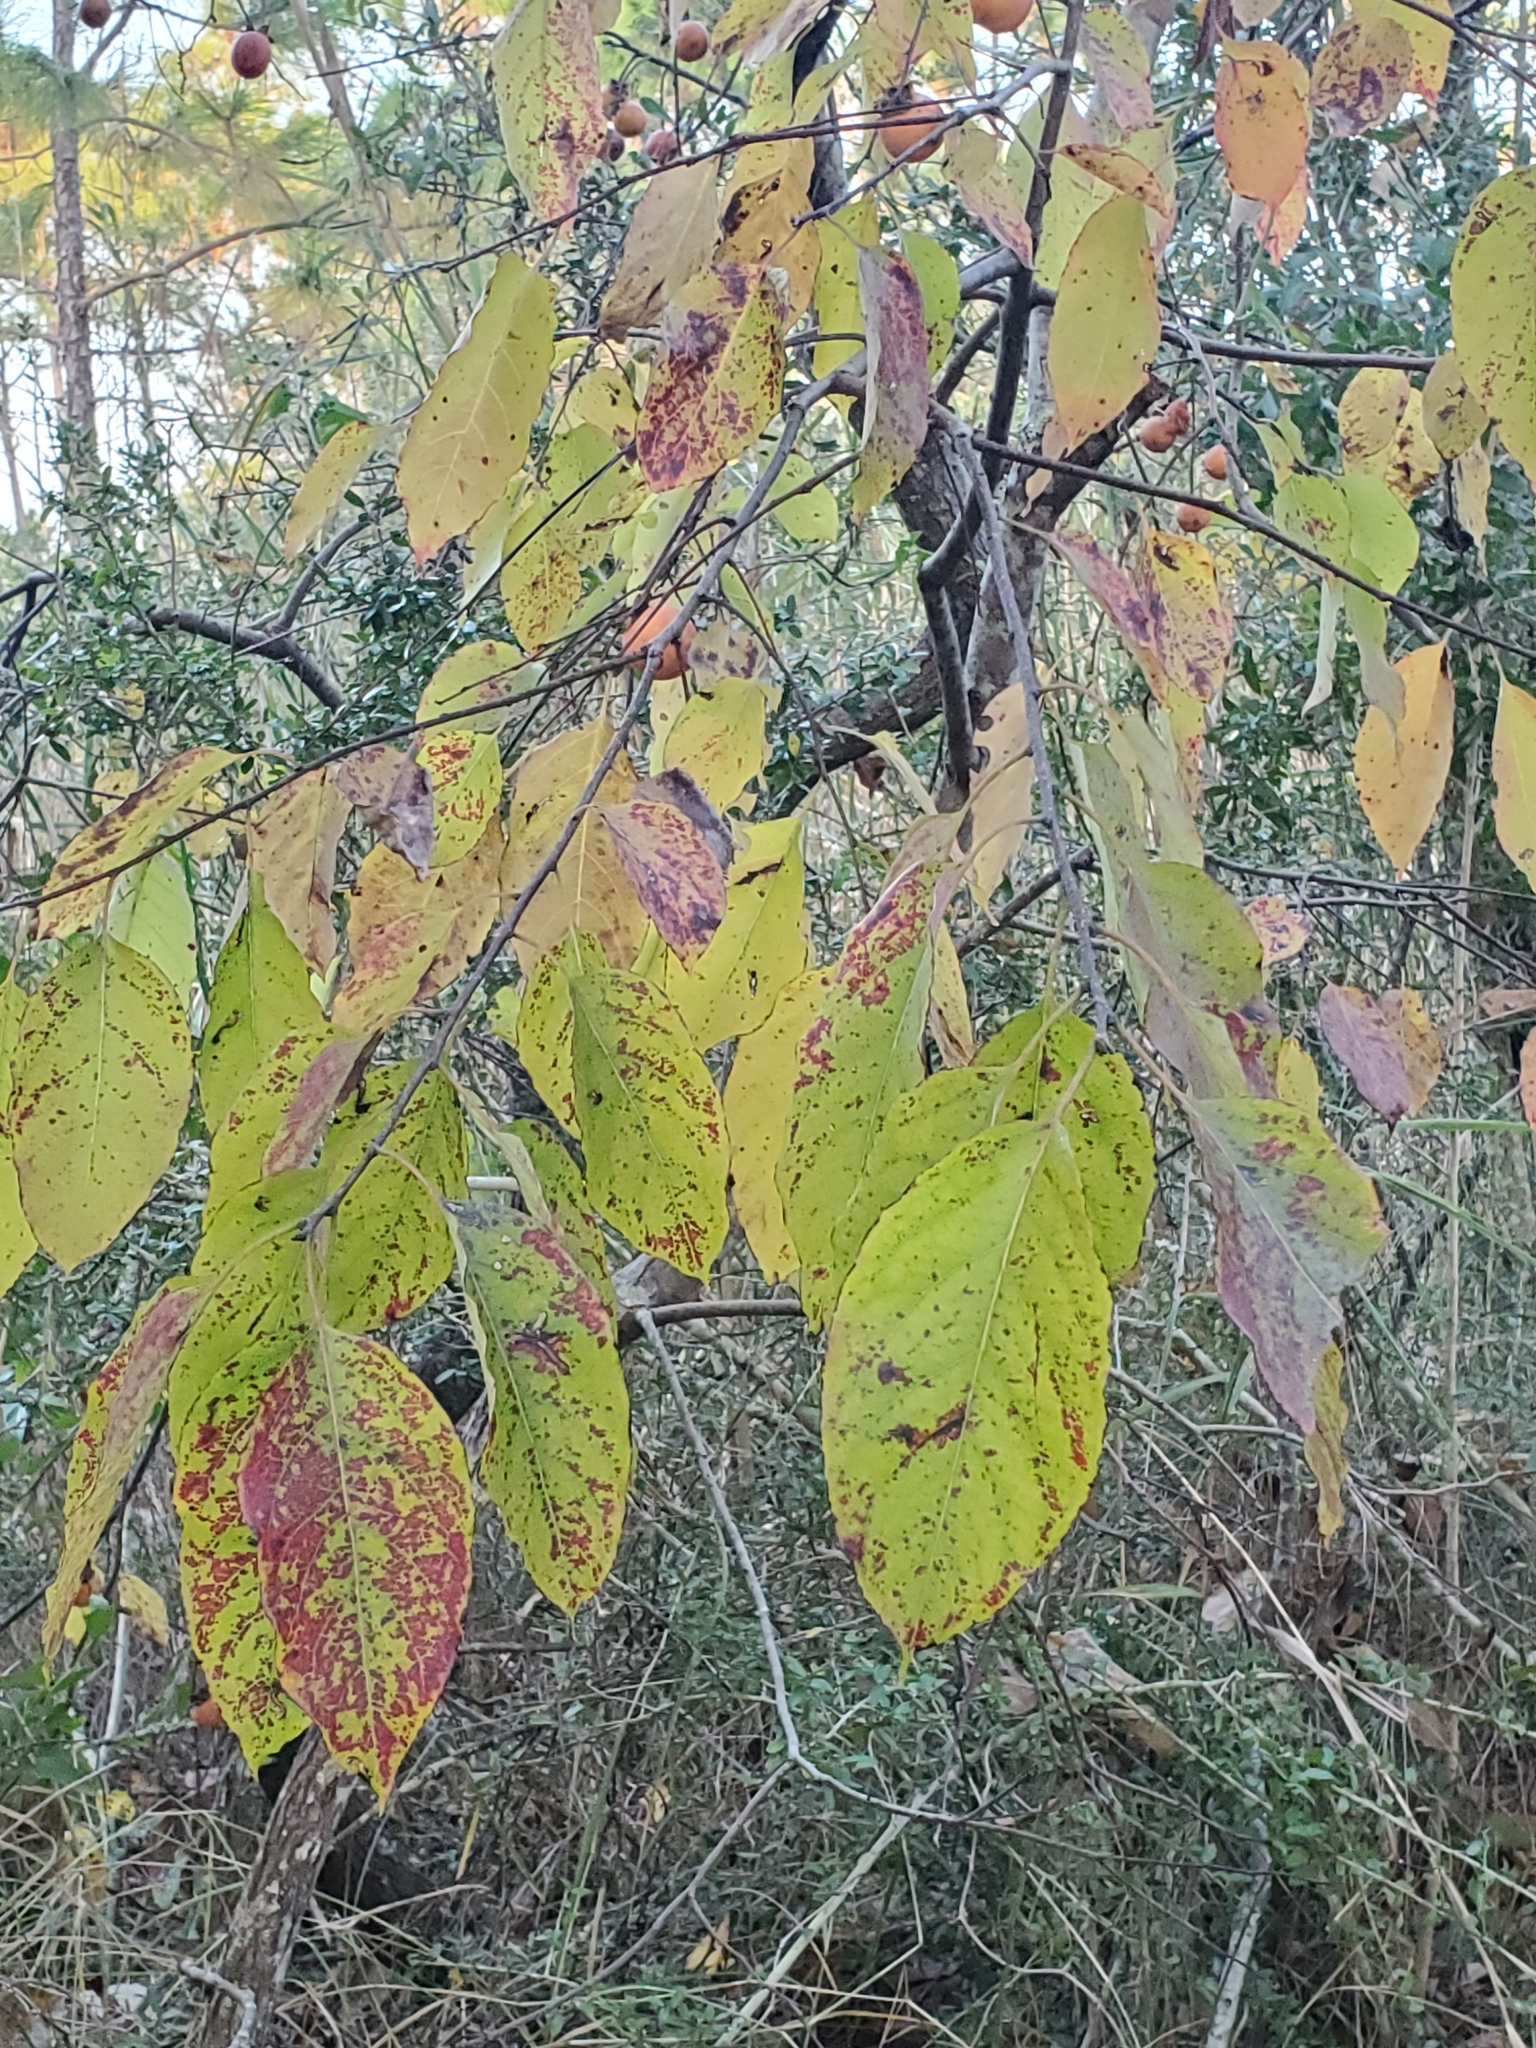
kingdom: Plantae
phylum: Tracheophyta
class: Magnoliopsida
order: Ericales
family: Ebenaceae
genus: Diospyros
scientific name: Diospyros virginiana
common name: Persimmon
